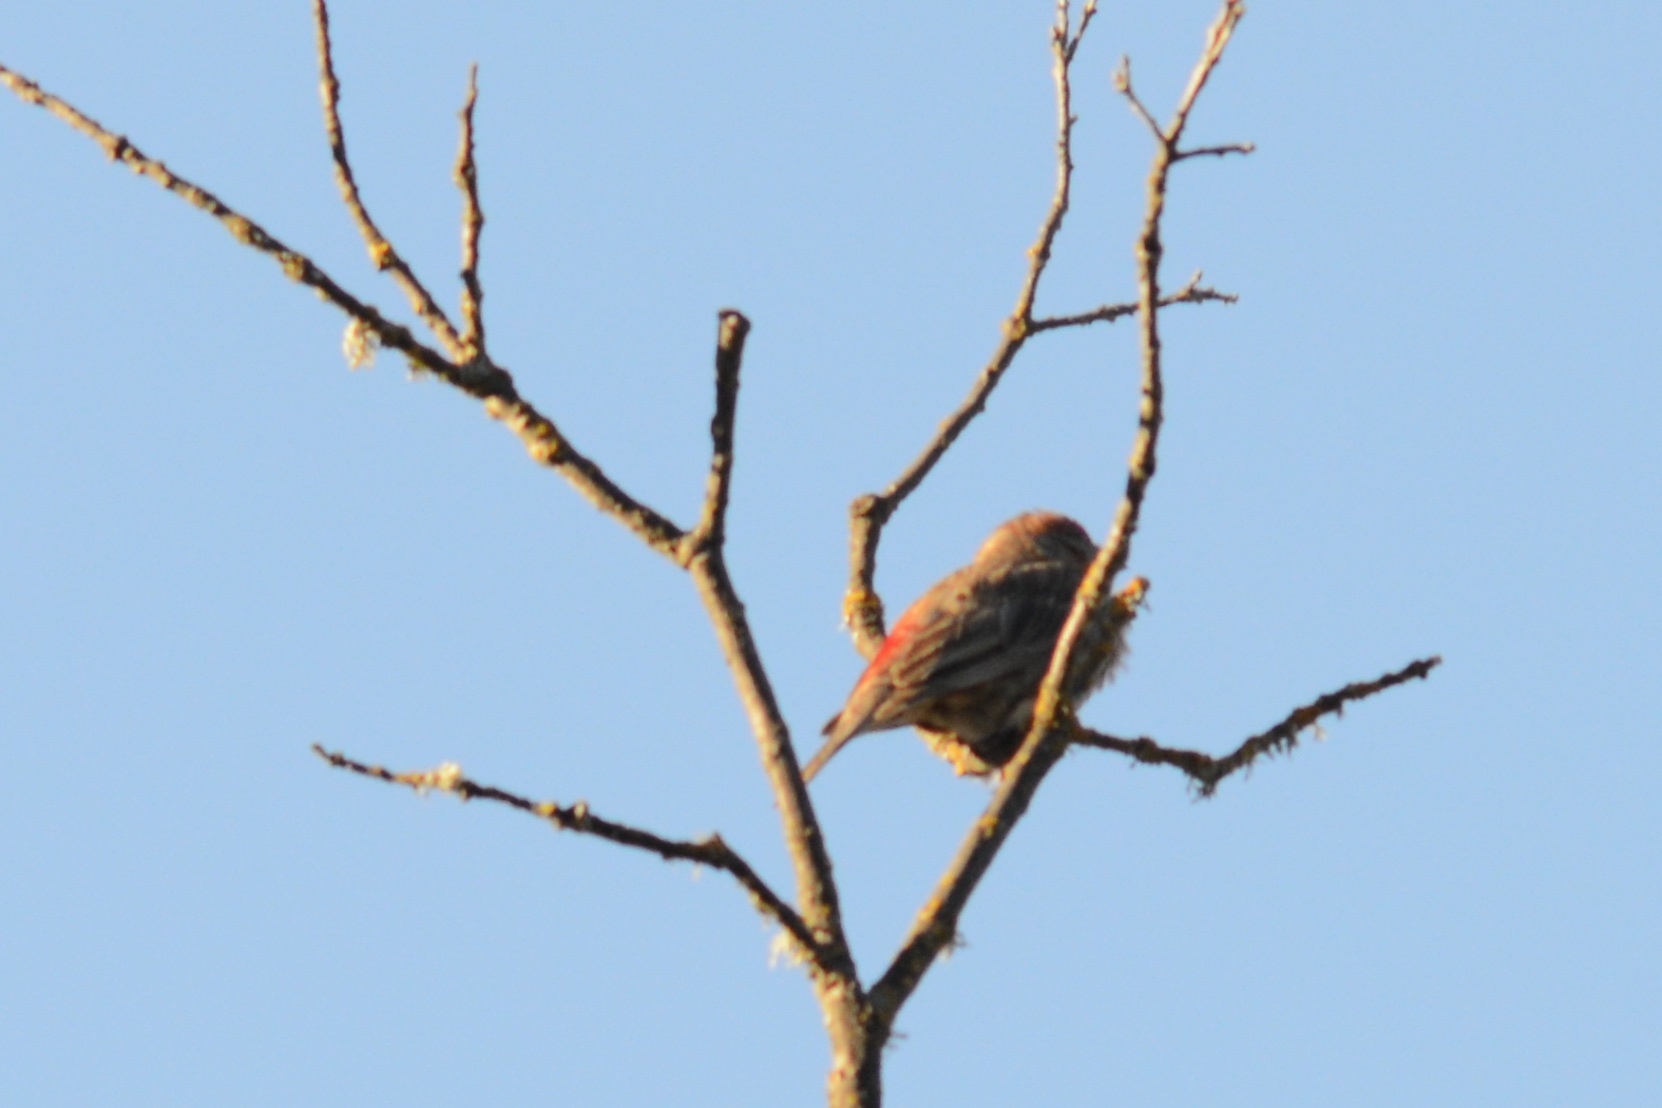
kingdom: Animalia
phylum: Chordata
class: Aves
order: Passeriformes
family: Fringillidae
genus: Haemorhous
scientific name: Haemorhous mexicanus
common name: House finch
